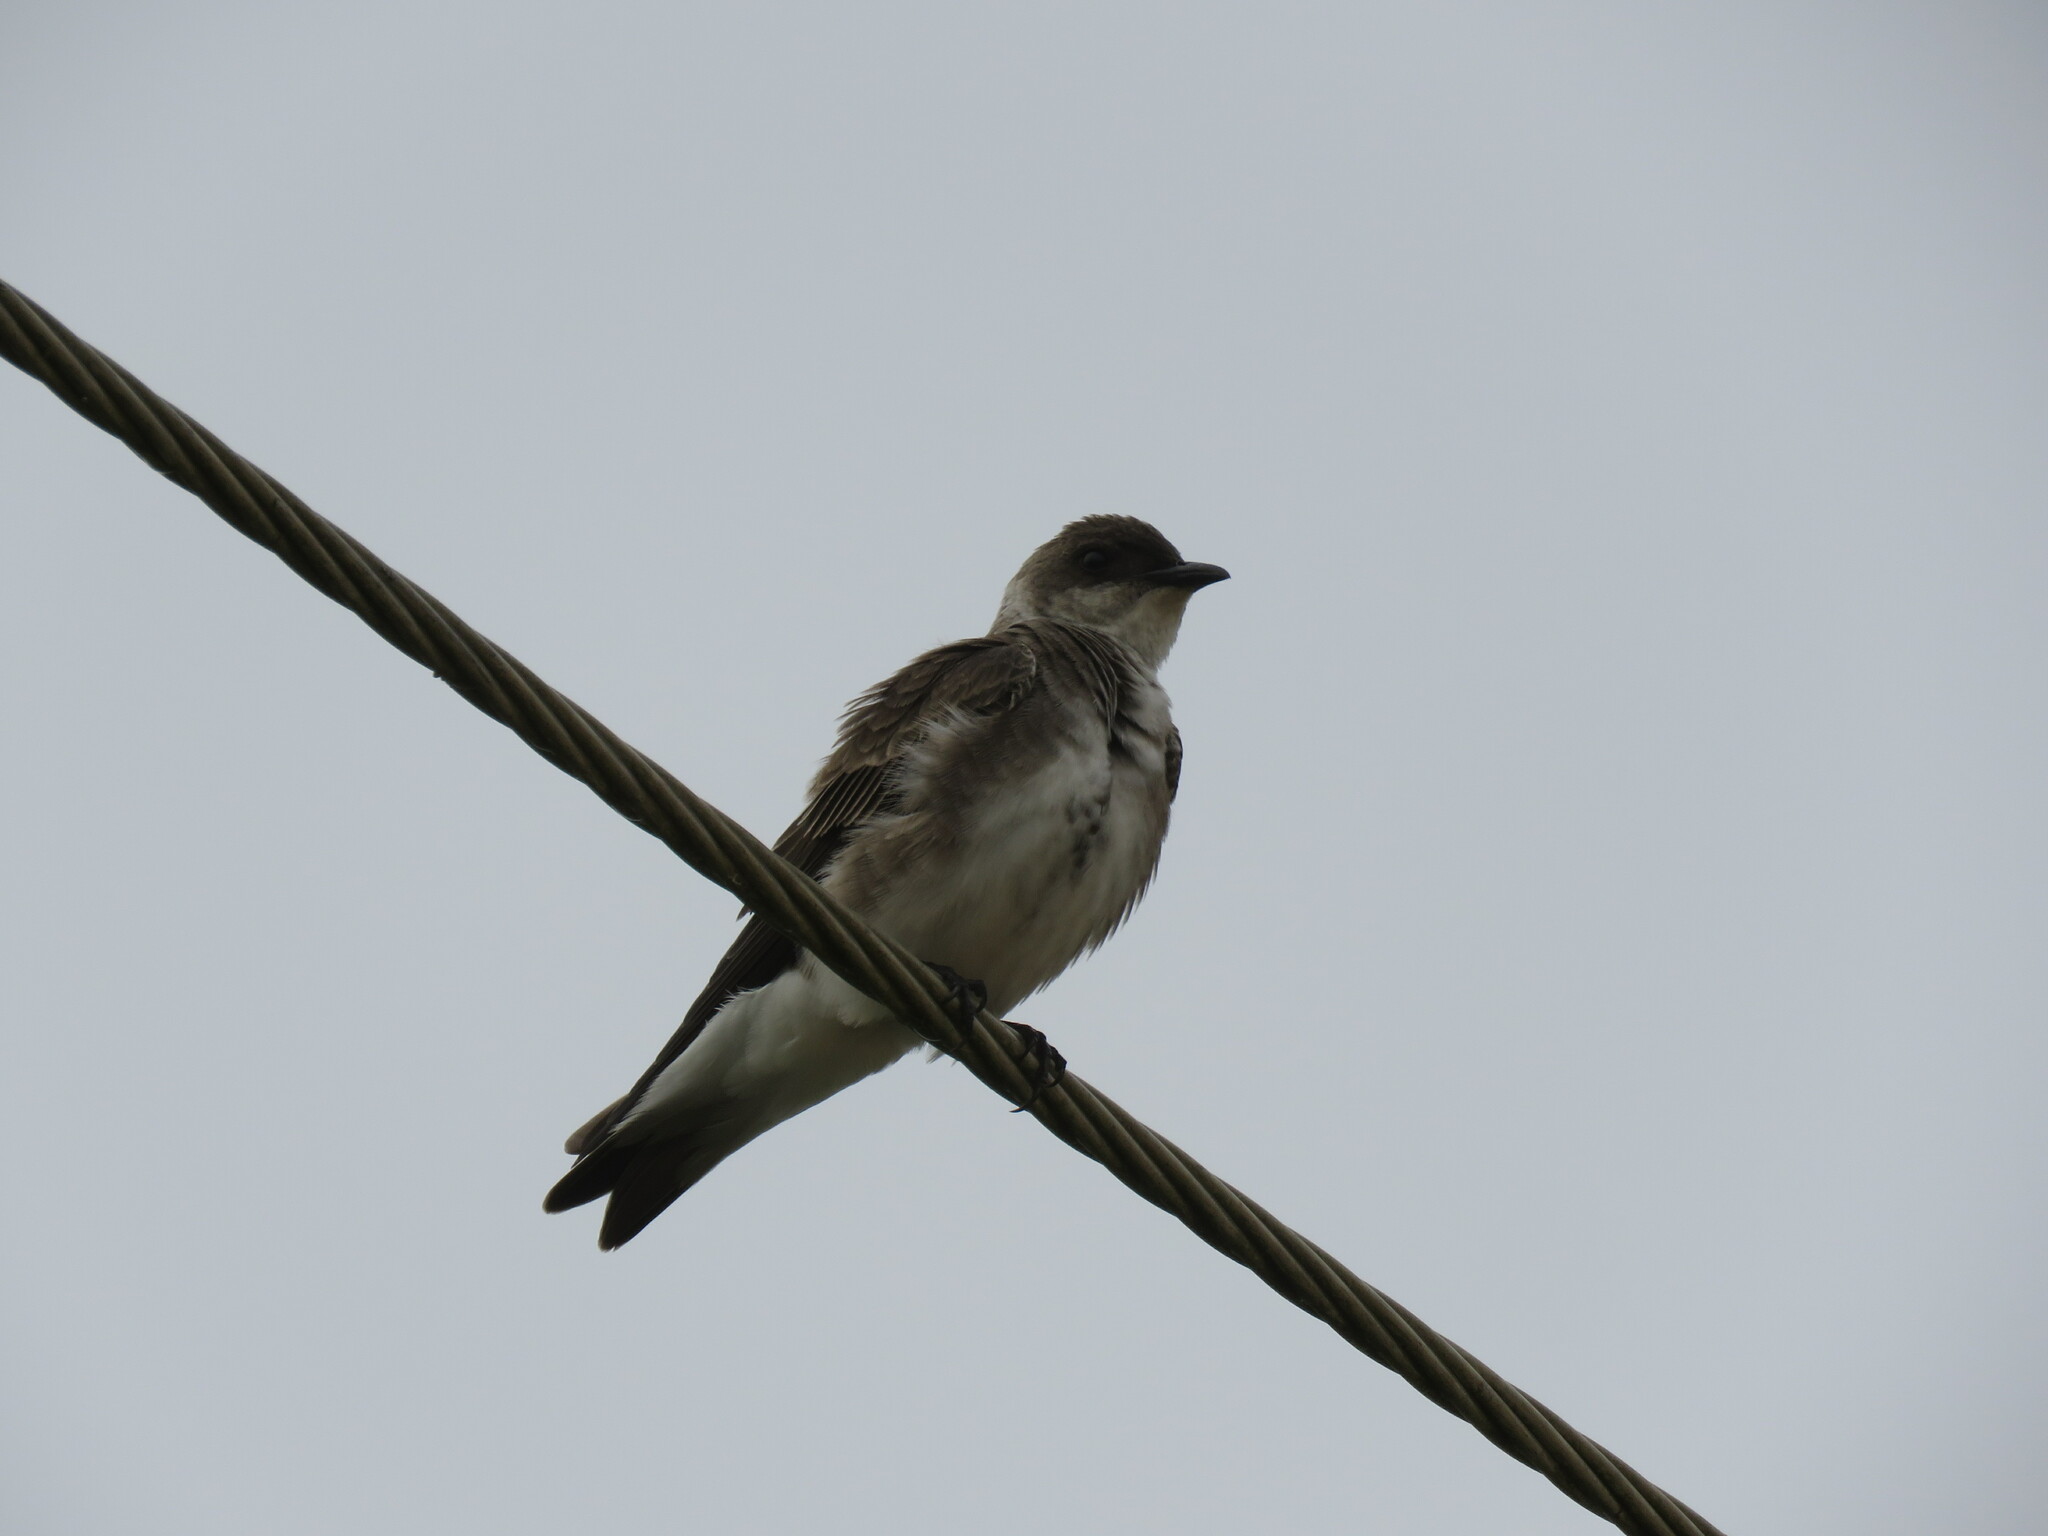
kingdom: Animalia
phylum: Chordata
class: Aves
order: Passeriformes
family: Hirundinidae
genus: Progne
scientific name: Progne tapera
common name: Brown-chested martin
